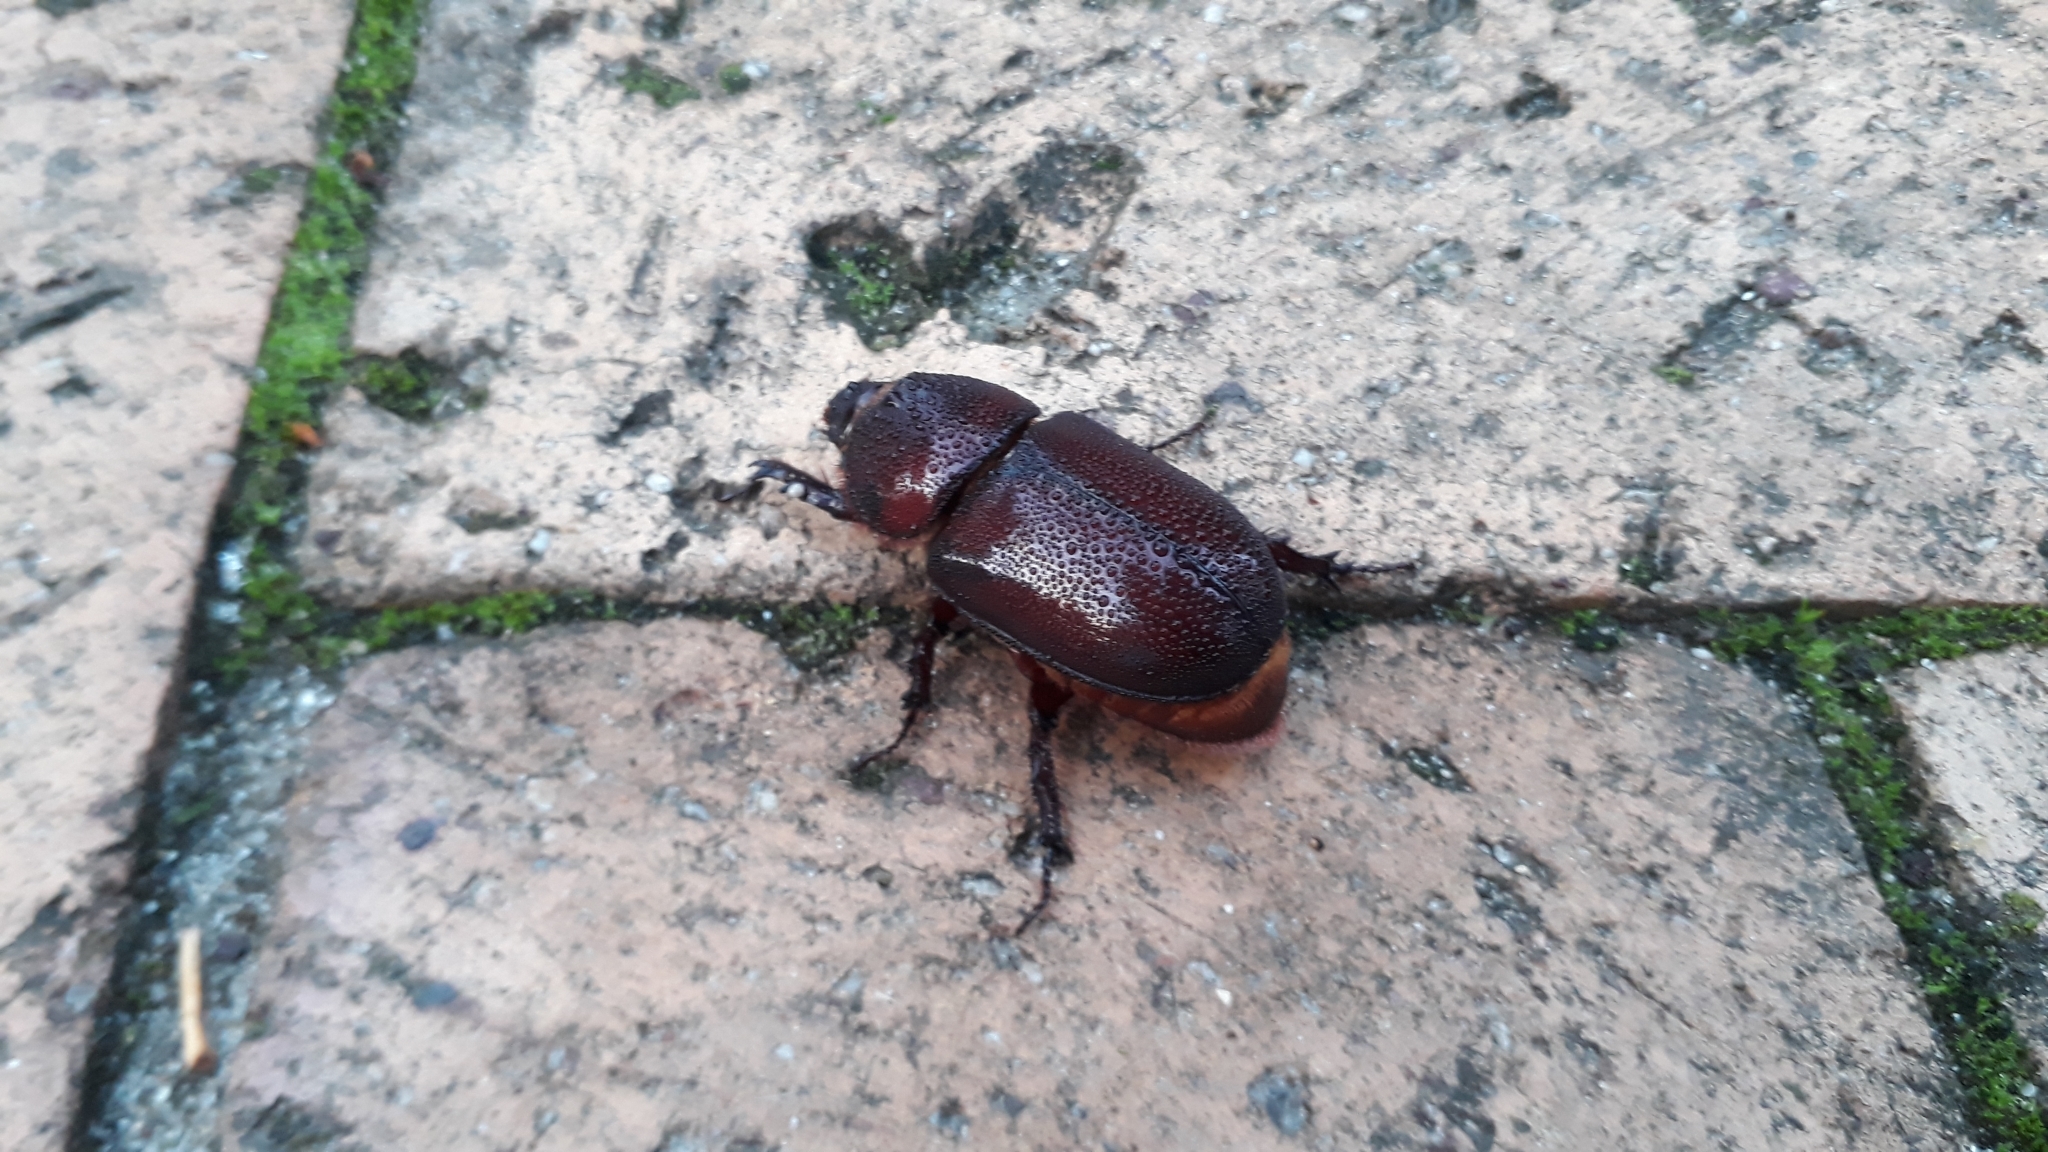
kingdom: Animalia
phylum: Arthropoda
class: Insecta
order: Coleoptera
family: Scarabaeidae
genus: Oryctes
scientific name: Oryctes boas
